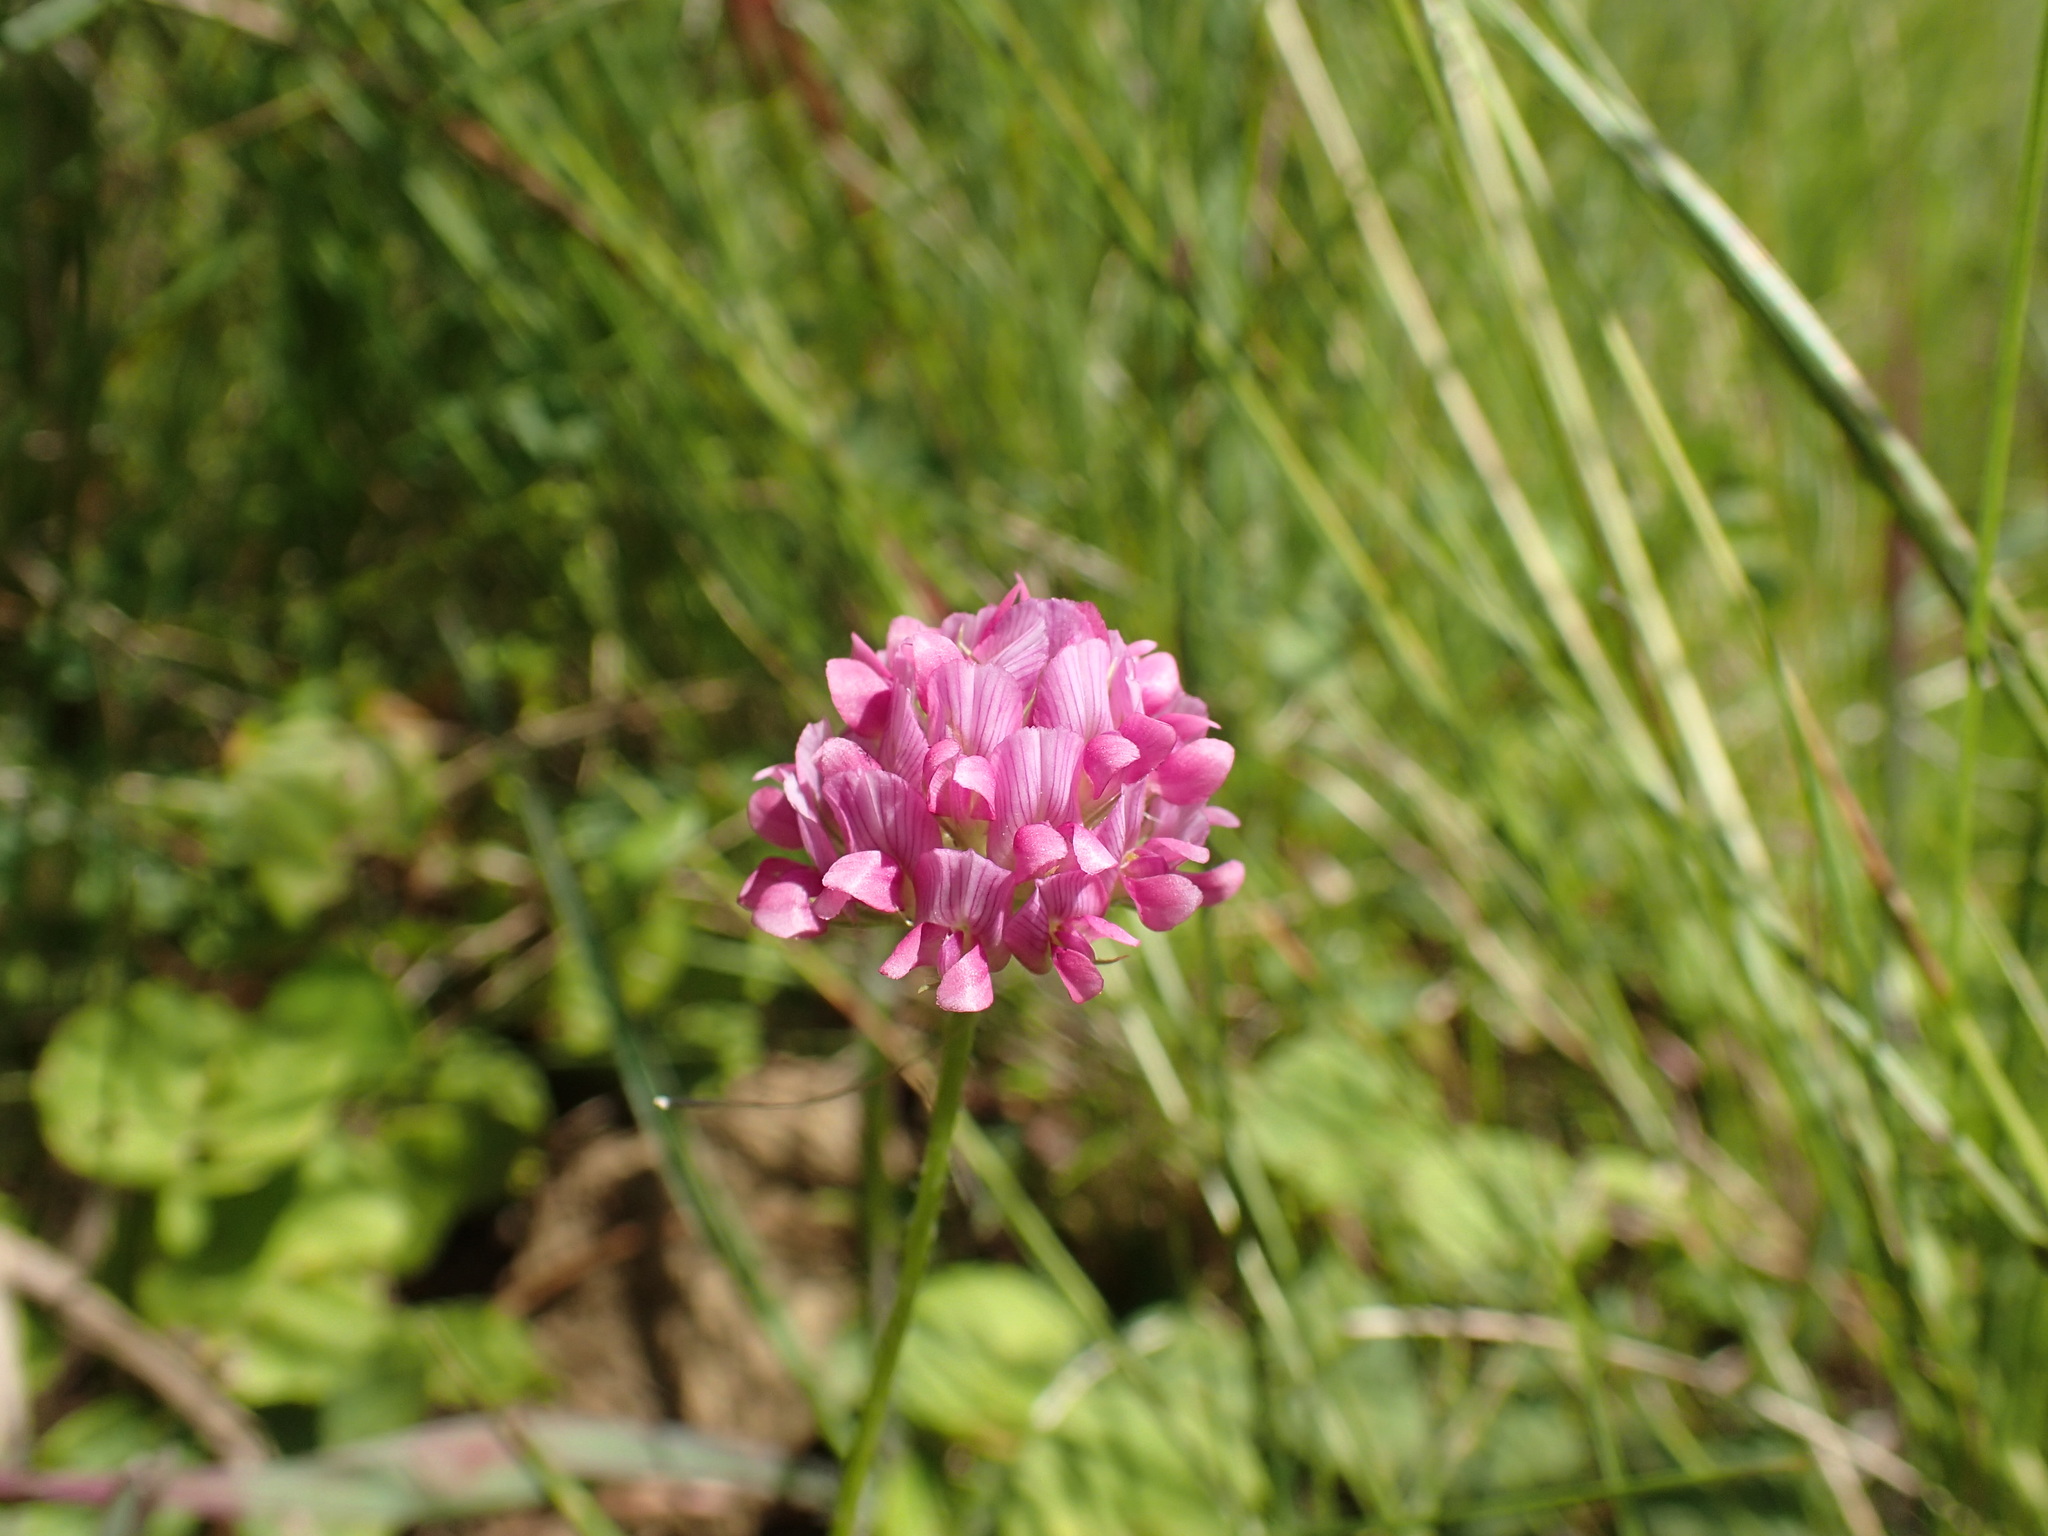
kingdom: Plantae
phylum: Tracheophyta
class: Magnoliopsida
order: Fabales
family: Fabaceae
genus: Trifolium
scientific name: Trifolium africanum
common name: Erasmus clover
